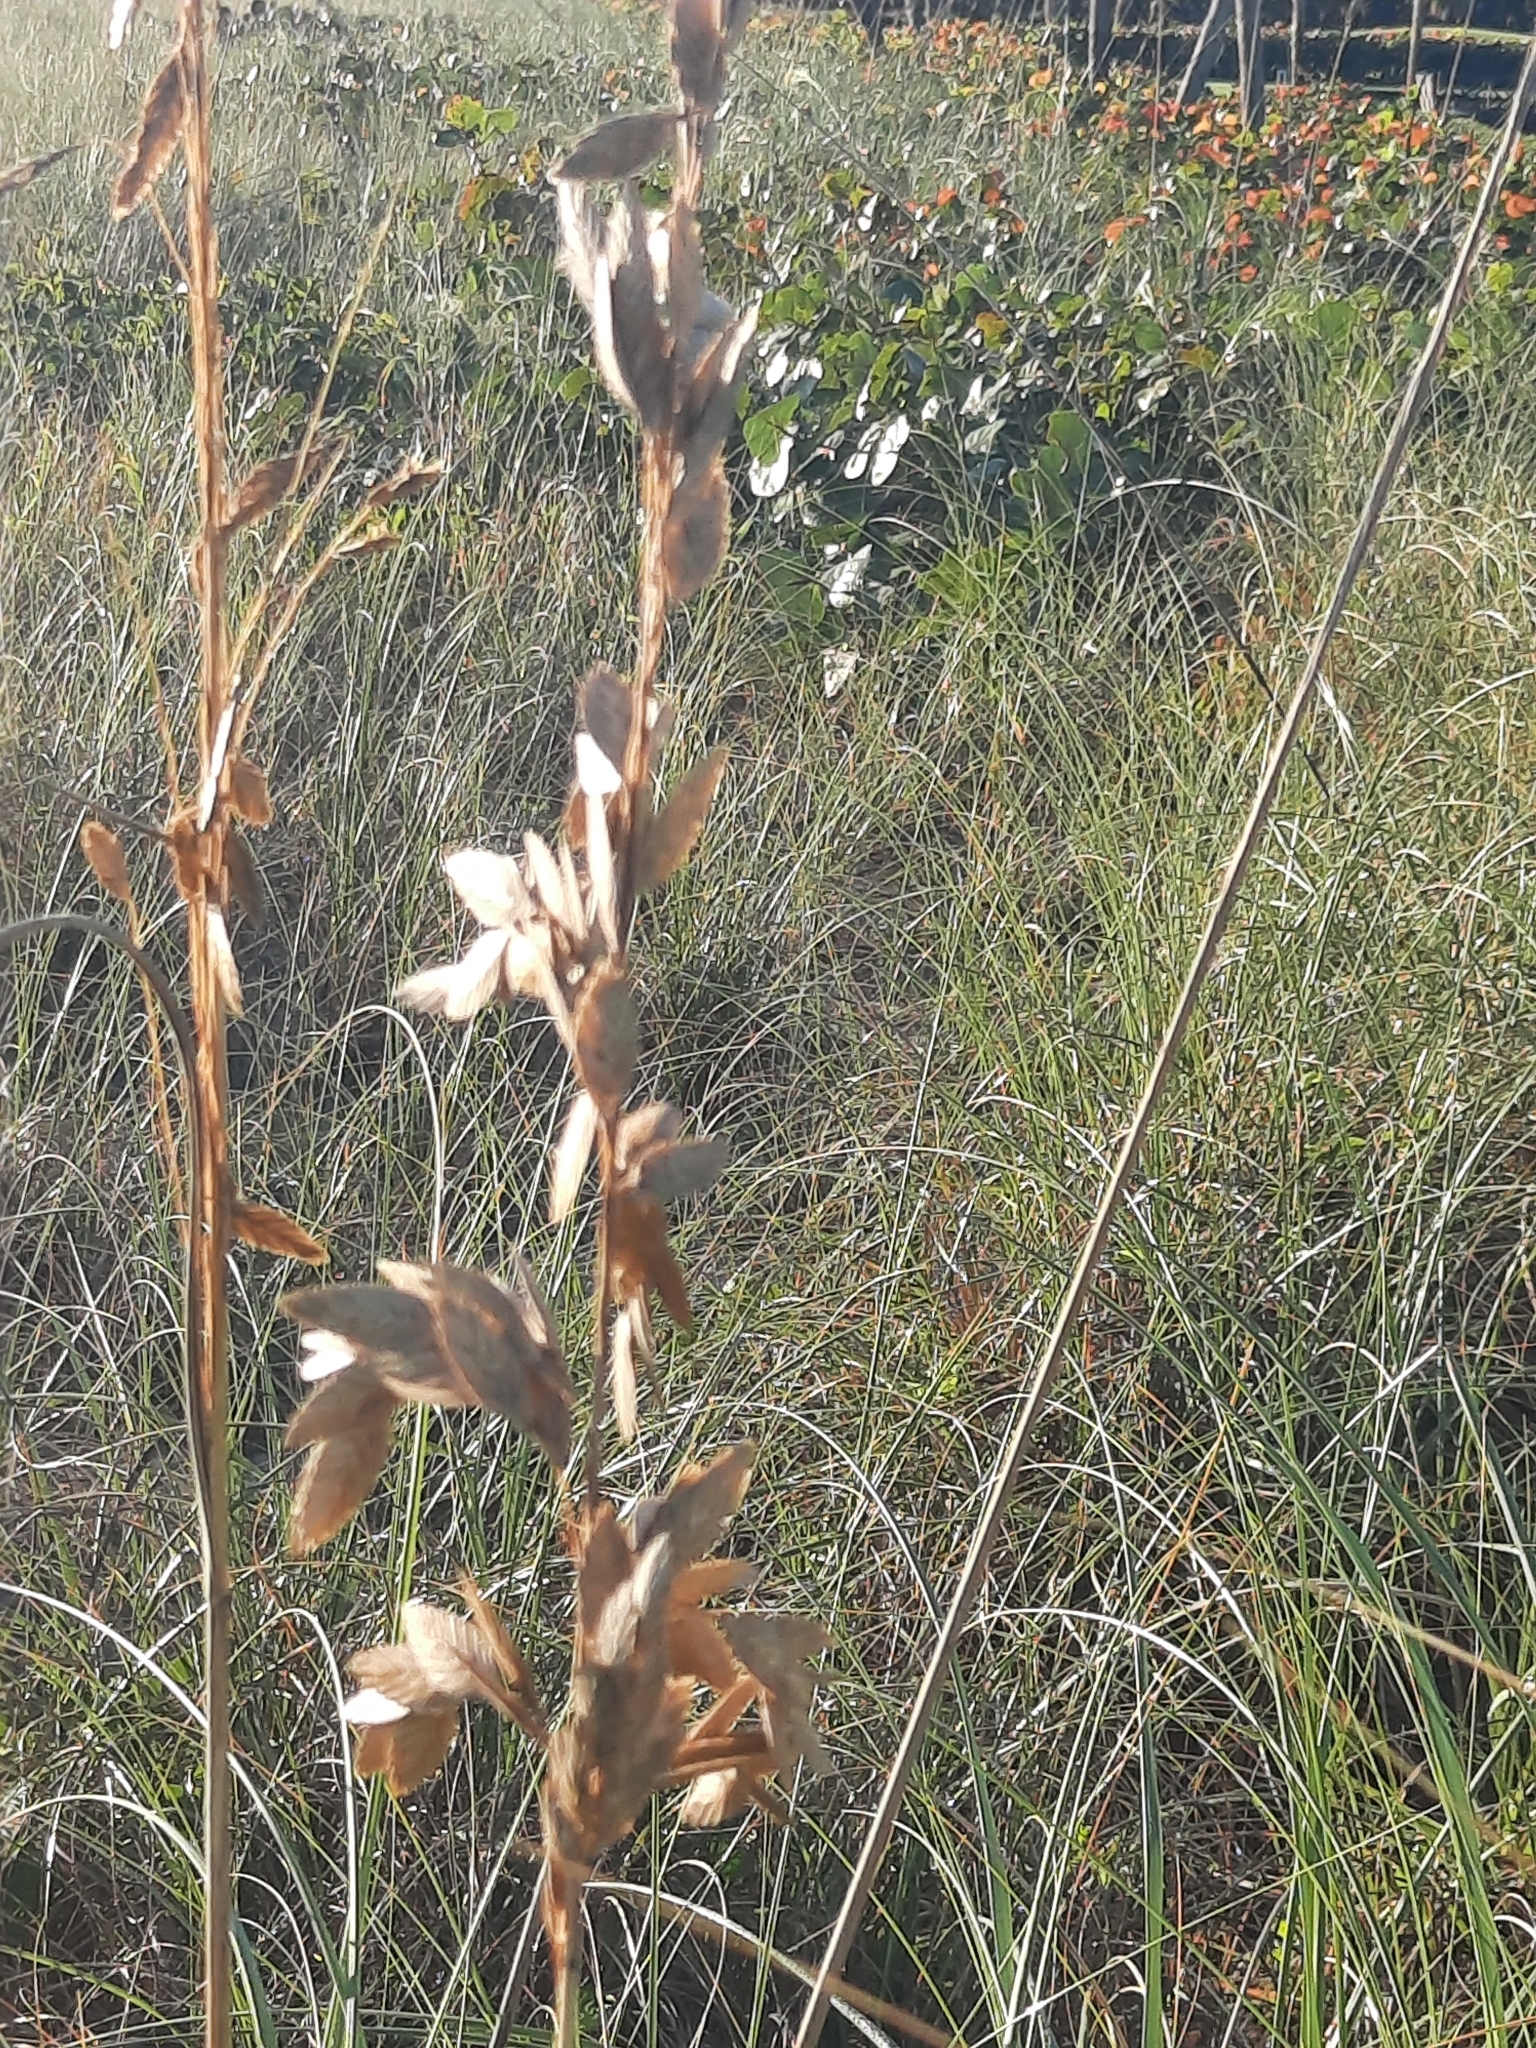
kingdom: Plantae
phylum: Tracheophyta
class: Liliopsida
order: Poales
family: Poaceae
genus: Uniola
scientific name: Uniola paniculata
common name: Seaside-oats
